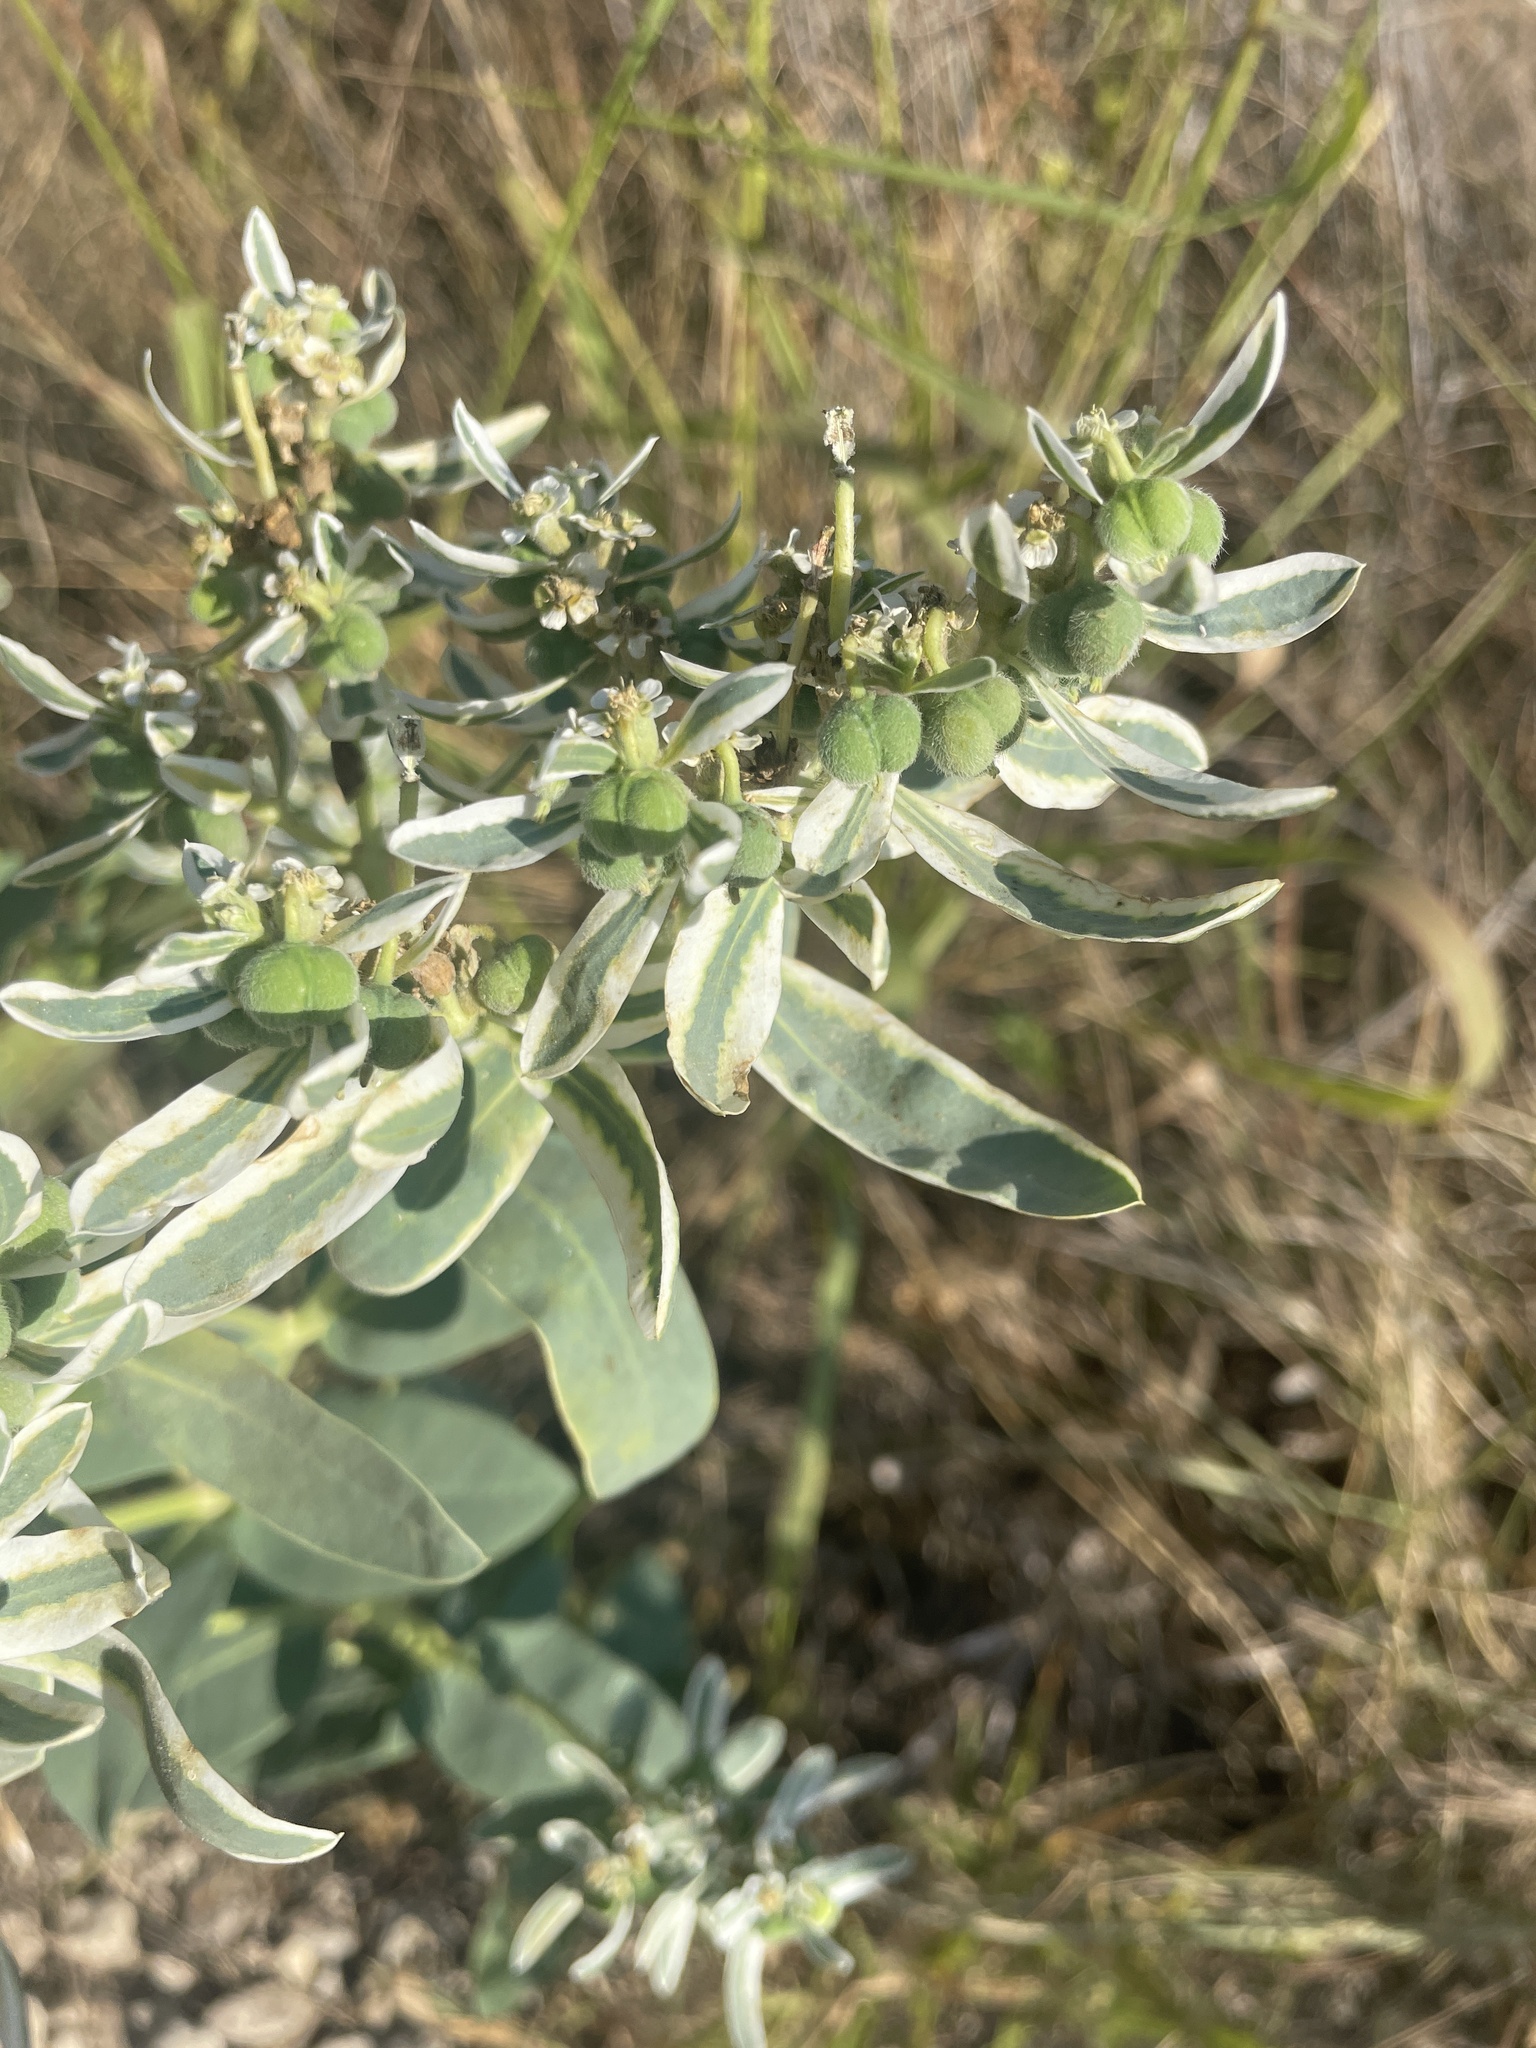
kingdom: Plantae
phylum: Tracheophyta
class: Magnoliopsida
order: Malpighiales
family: Euphorbiaceae
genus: Euphorbia
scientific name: Euphorbia marginata
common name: Ghostweed
